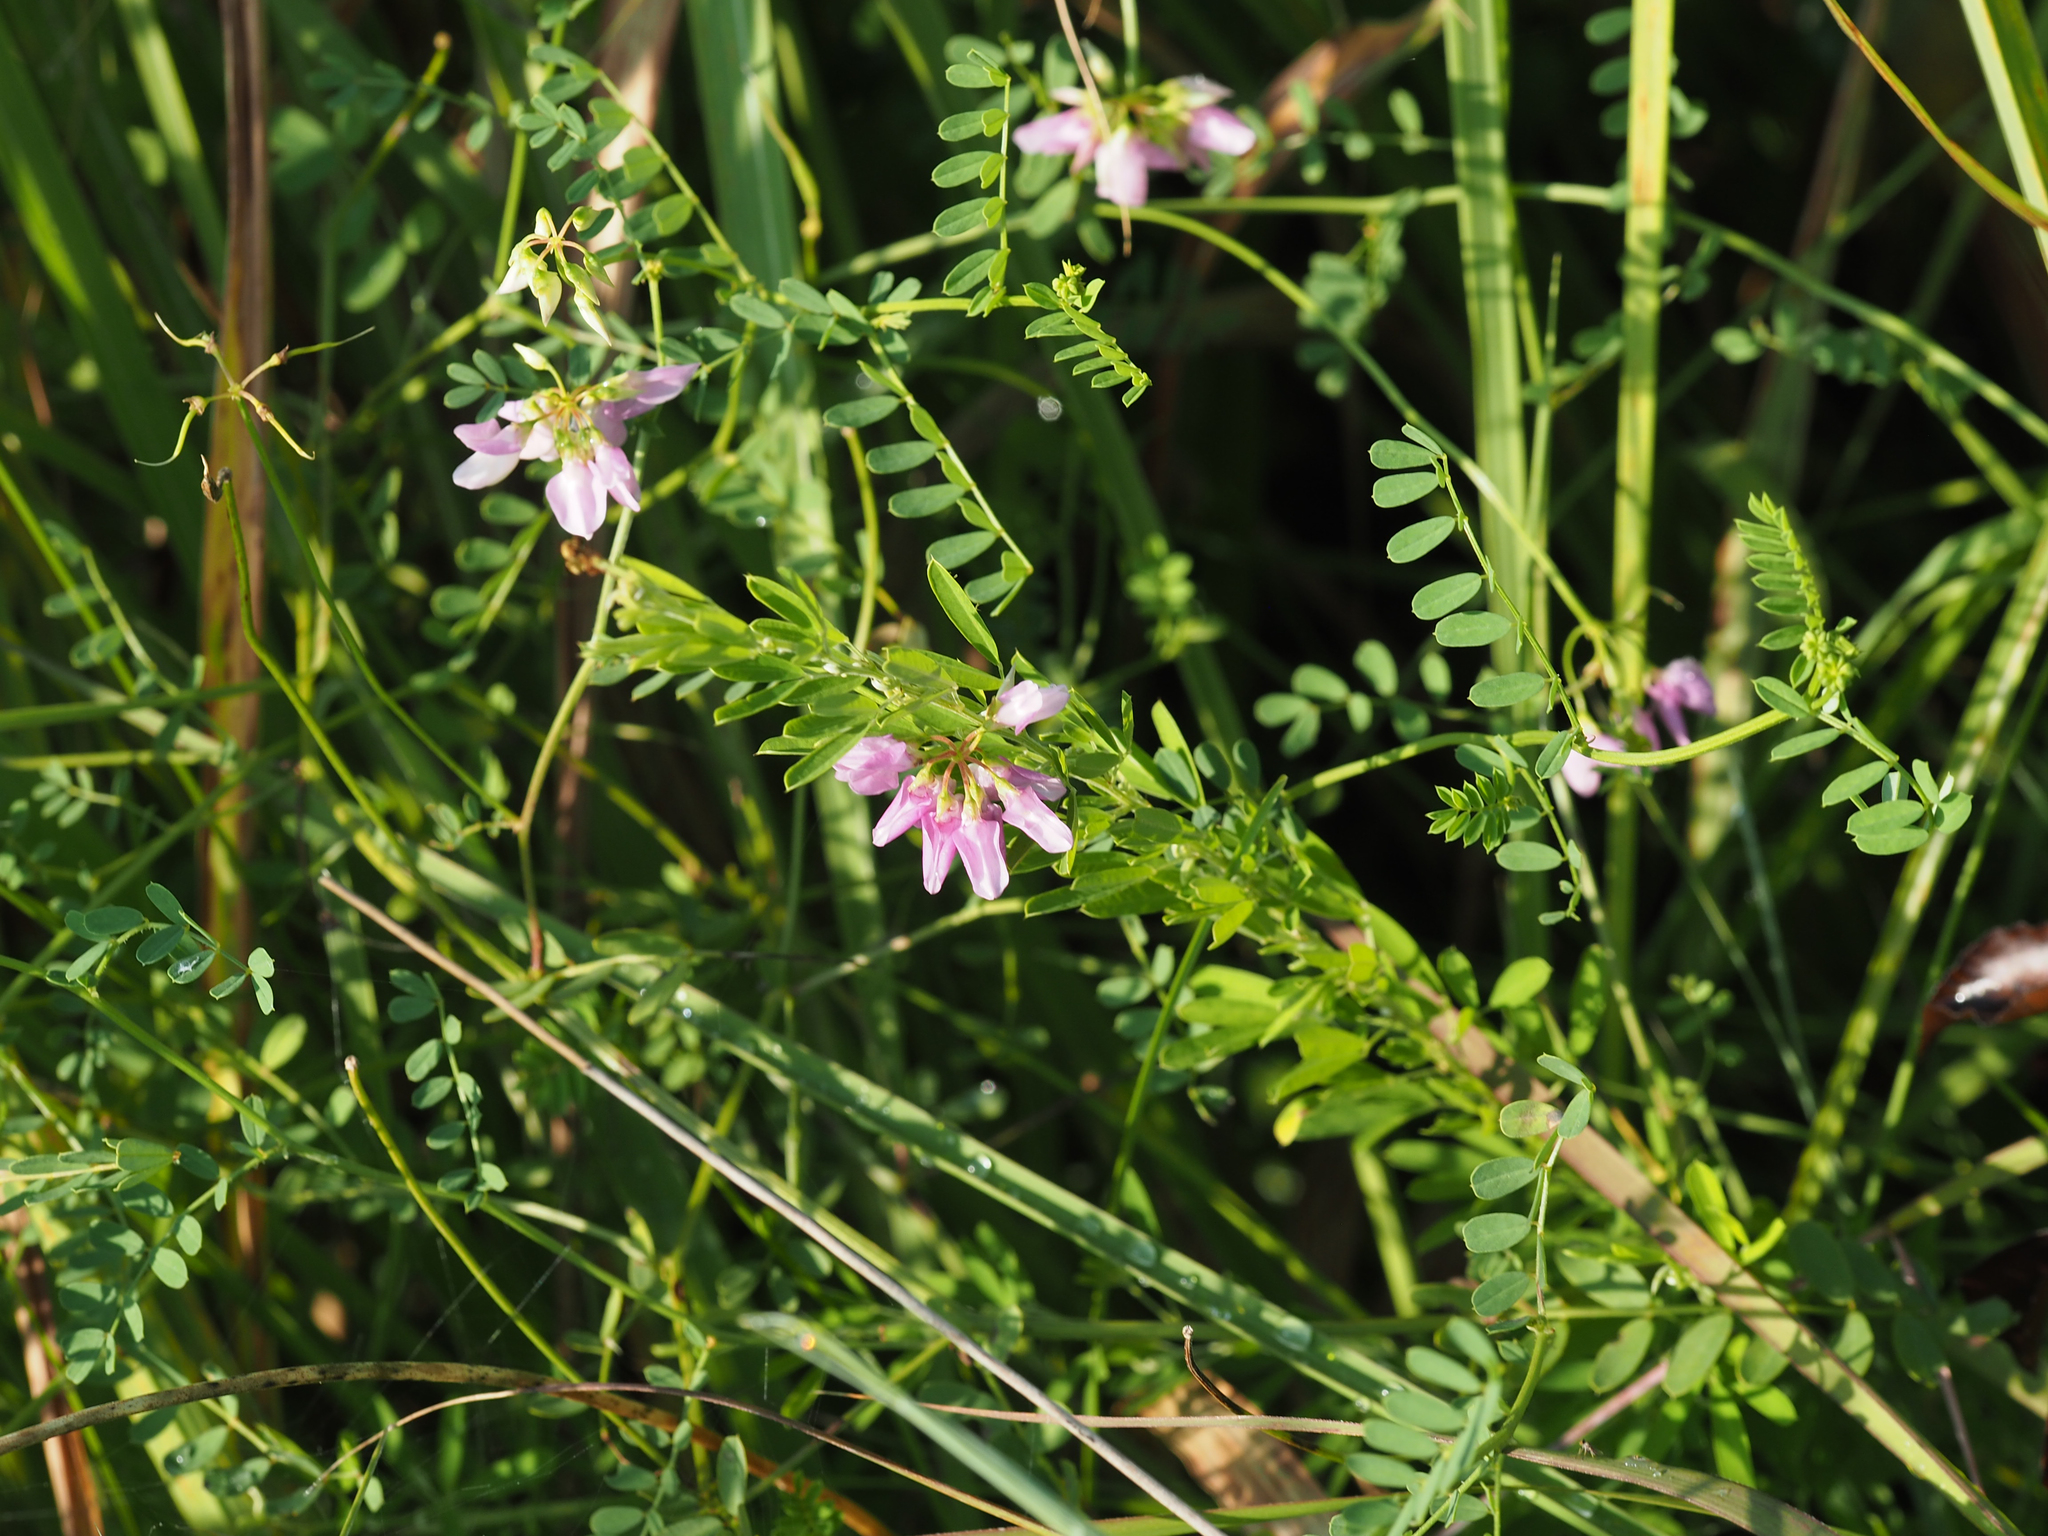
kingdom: Plantae
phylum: Tracheophyta
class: Magnoliopsida
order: Fabales
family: Fabaceae
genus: Coronilla
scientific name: Coronilla varia
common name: Crownvetch
